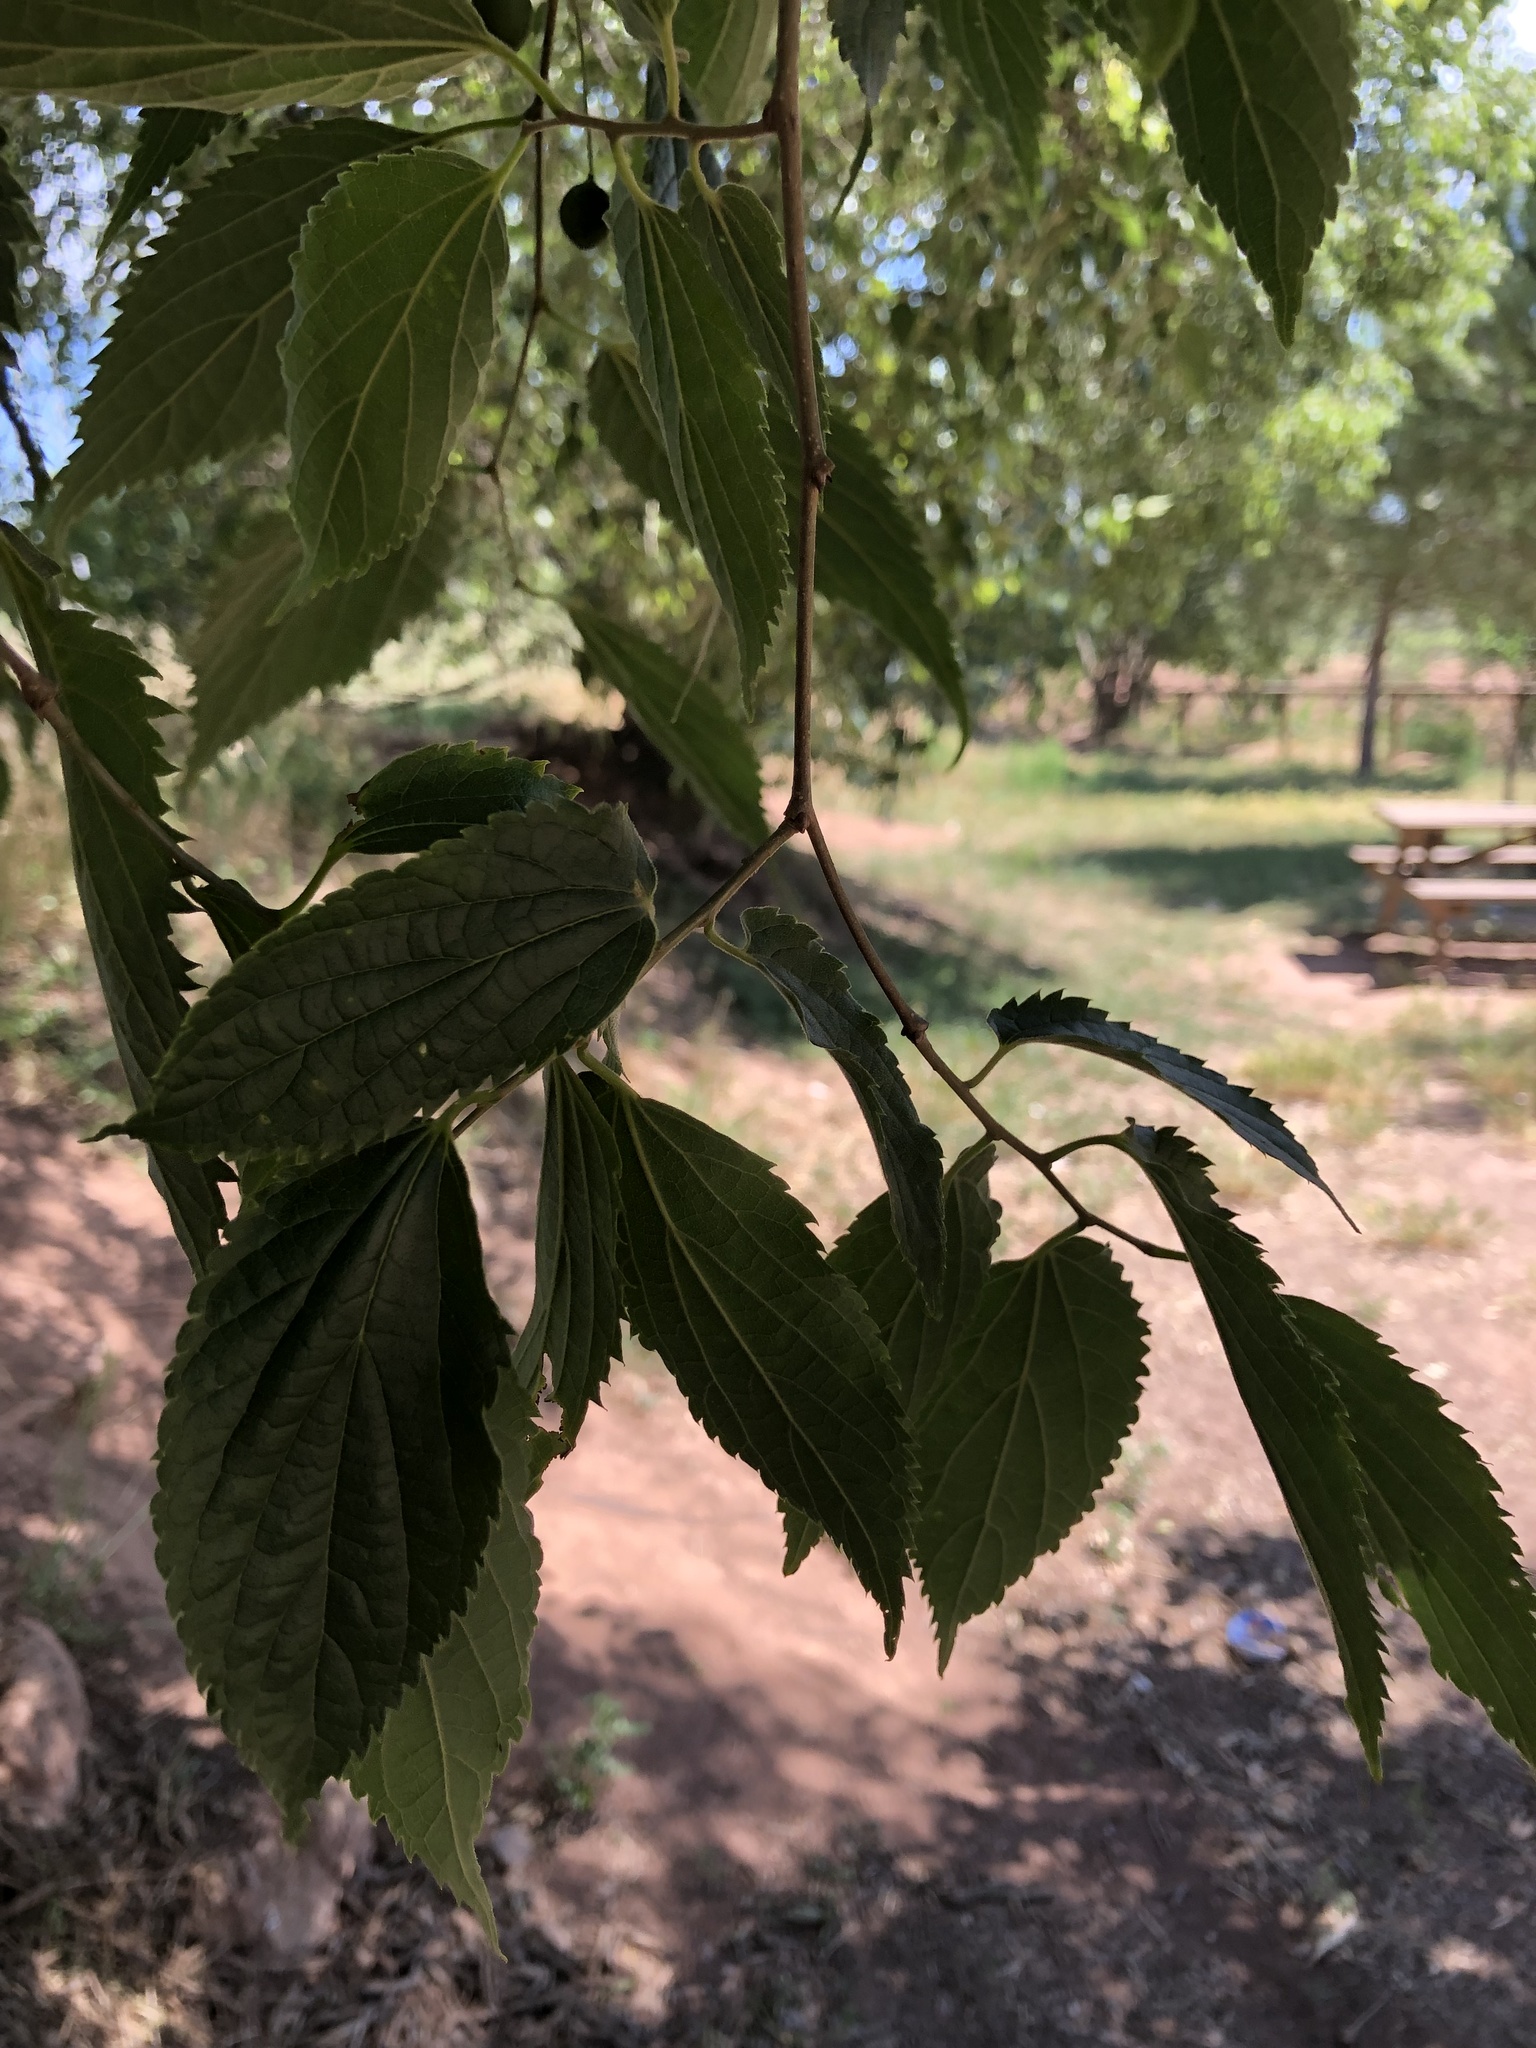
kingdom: Plantae
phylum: Tracheophyta
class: Magnoliopsida
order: Rosales
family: Cannabaceae
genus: Celtis
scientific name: Celtis australis
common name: European hackberry
